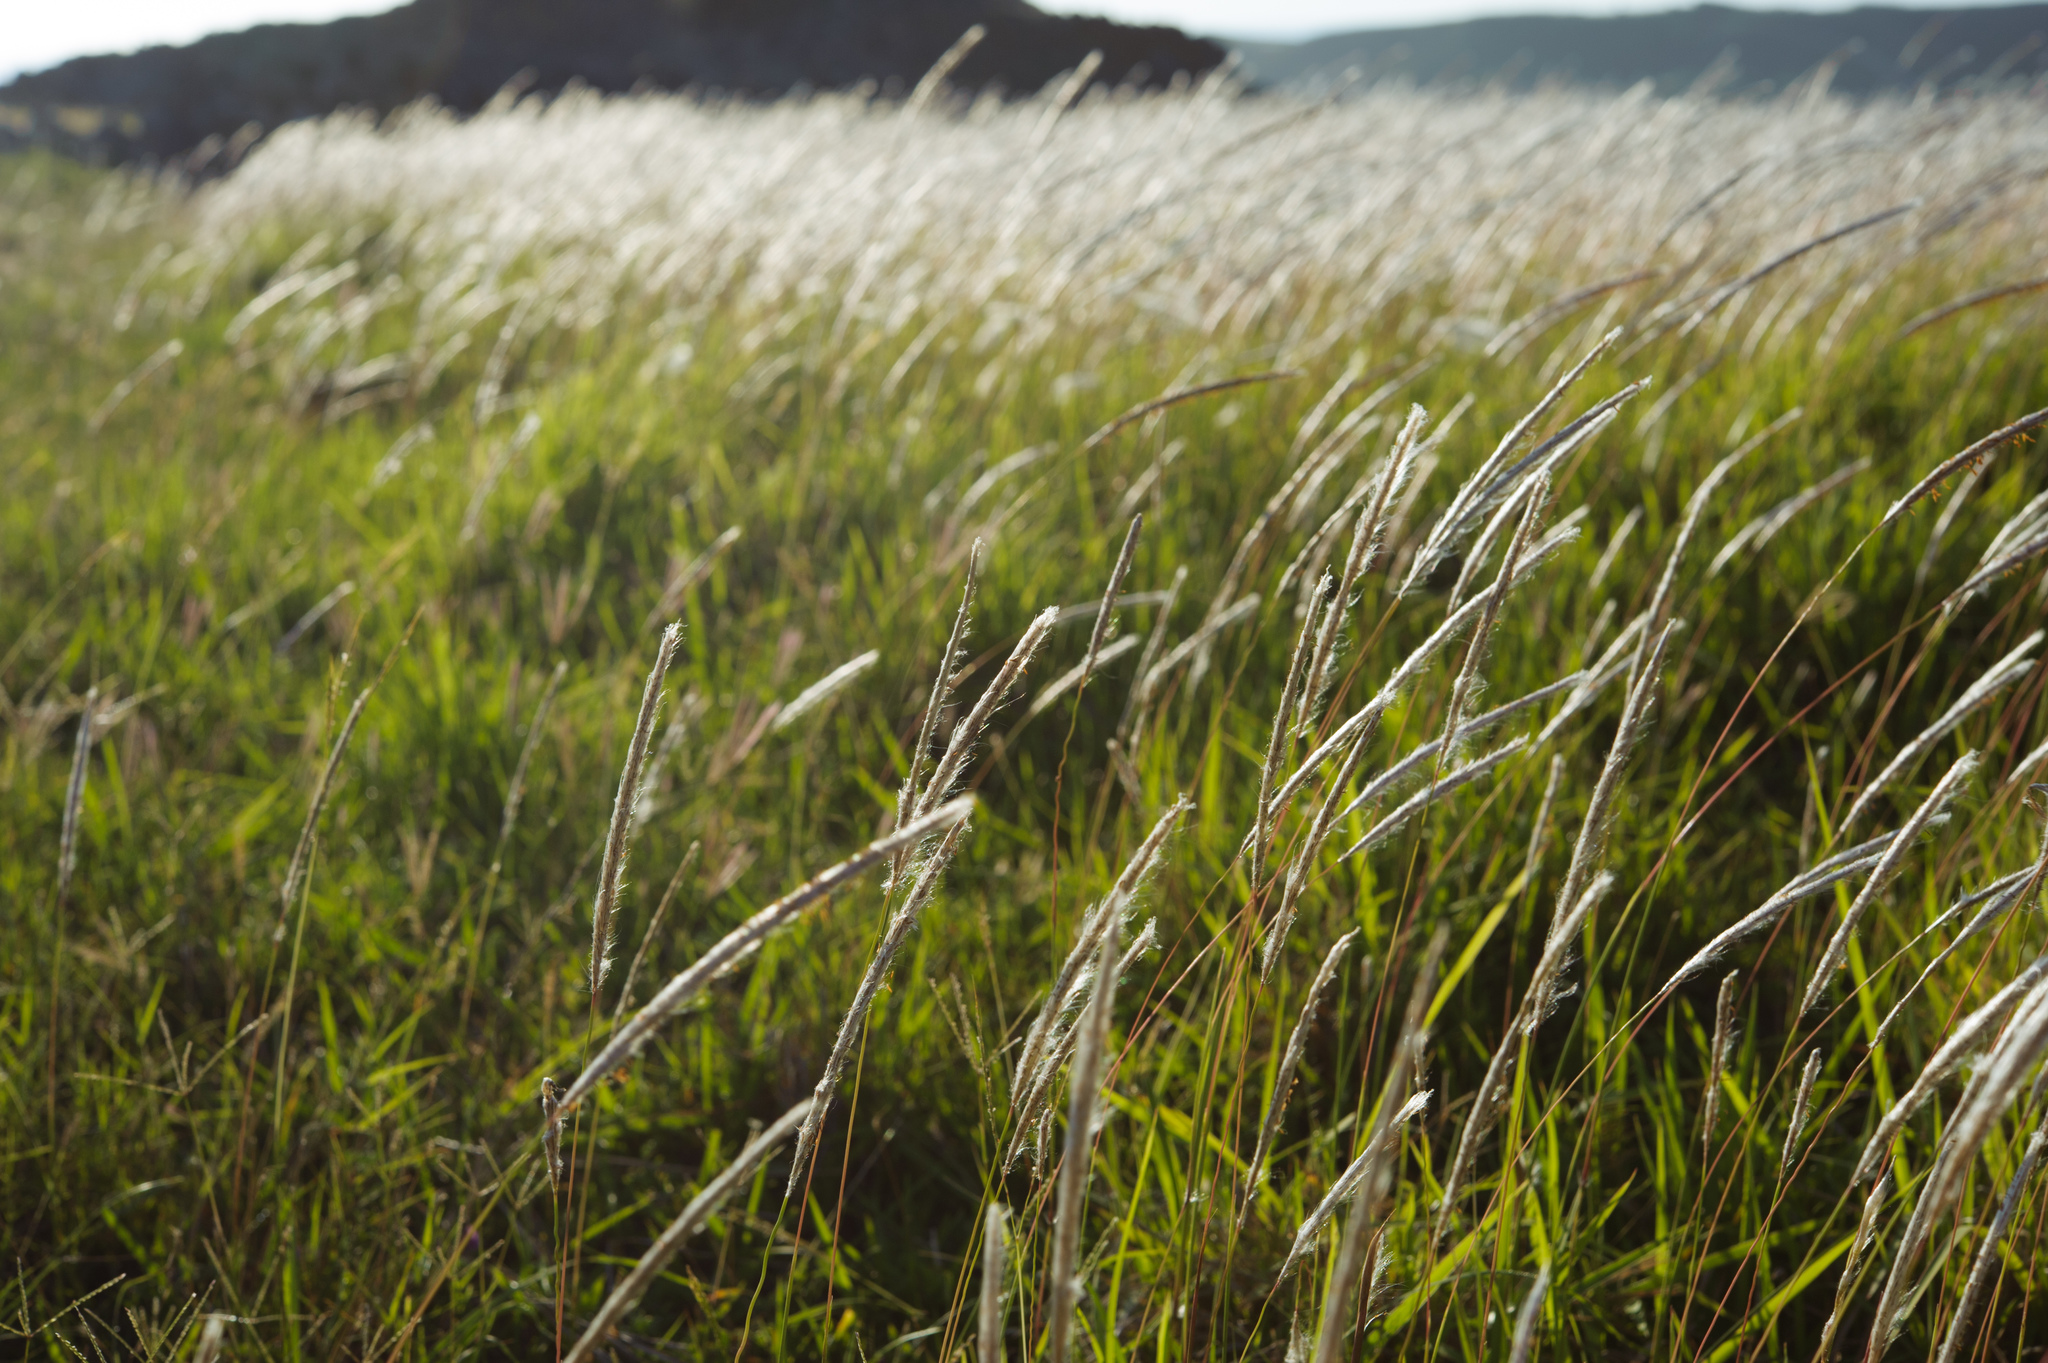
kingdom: Plantae
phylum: Tracheophyta
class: Liliopsida
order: Poales
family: Poaceae
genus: Imperata
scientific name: Imperata cylindrica
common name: Cogongrass
